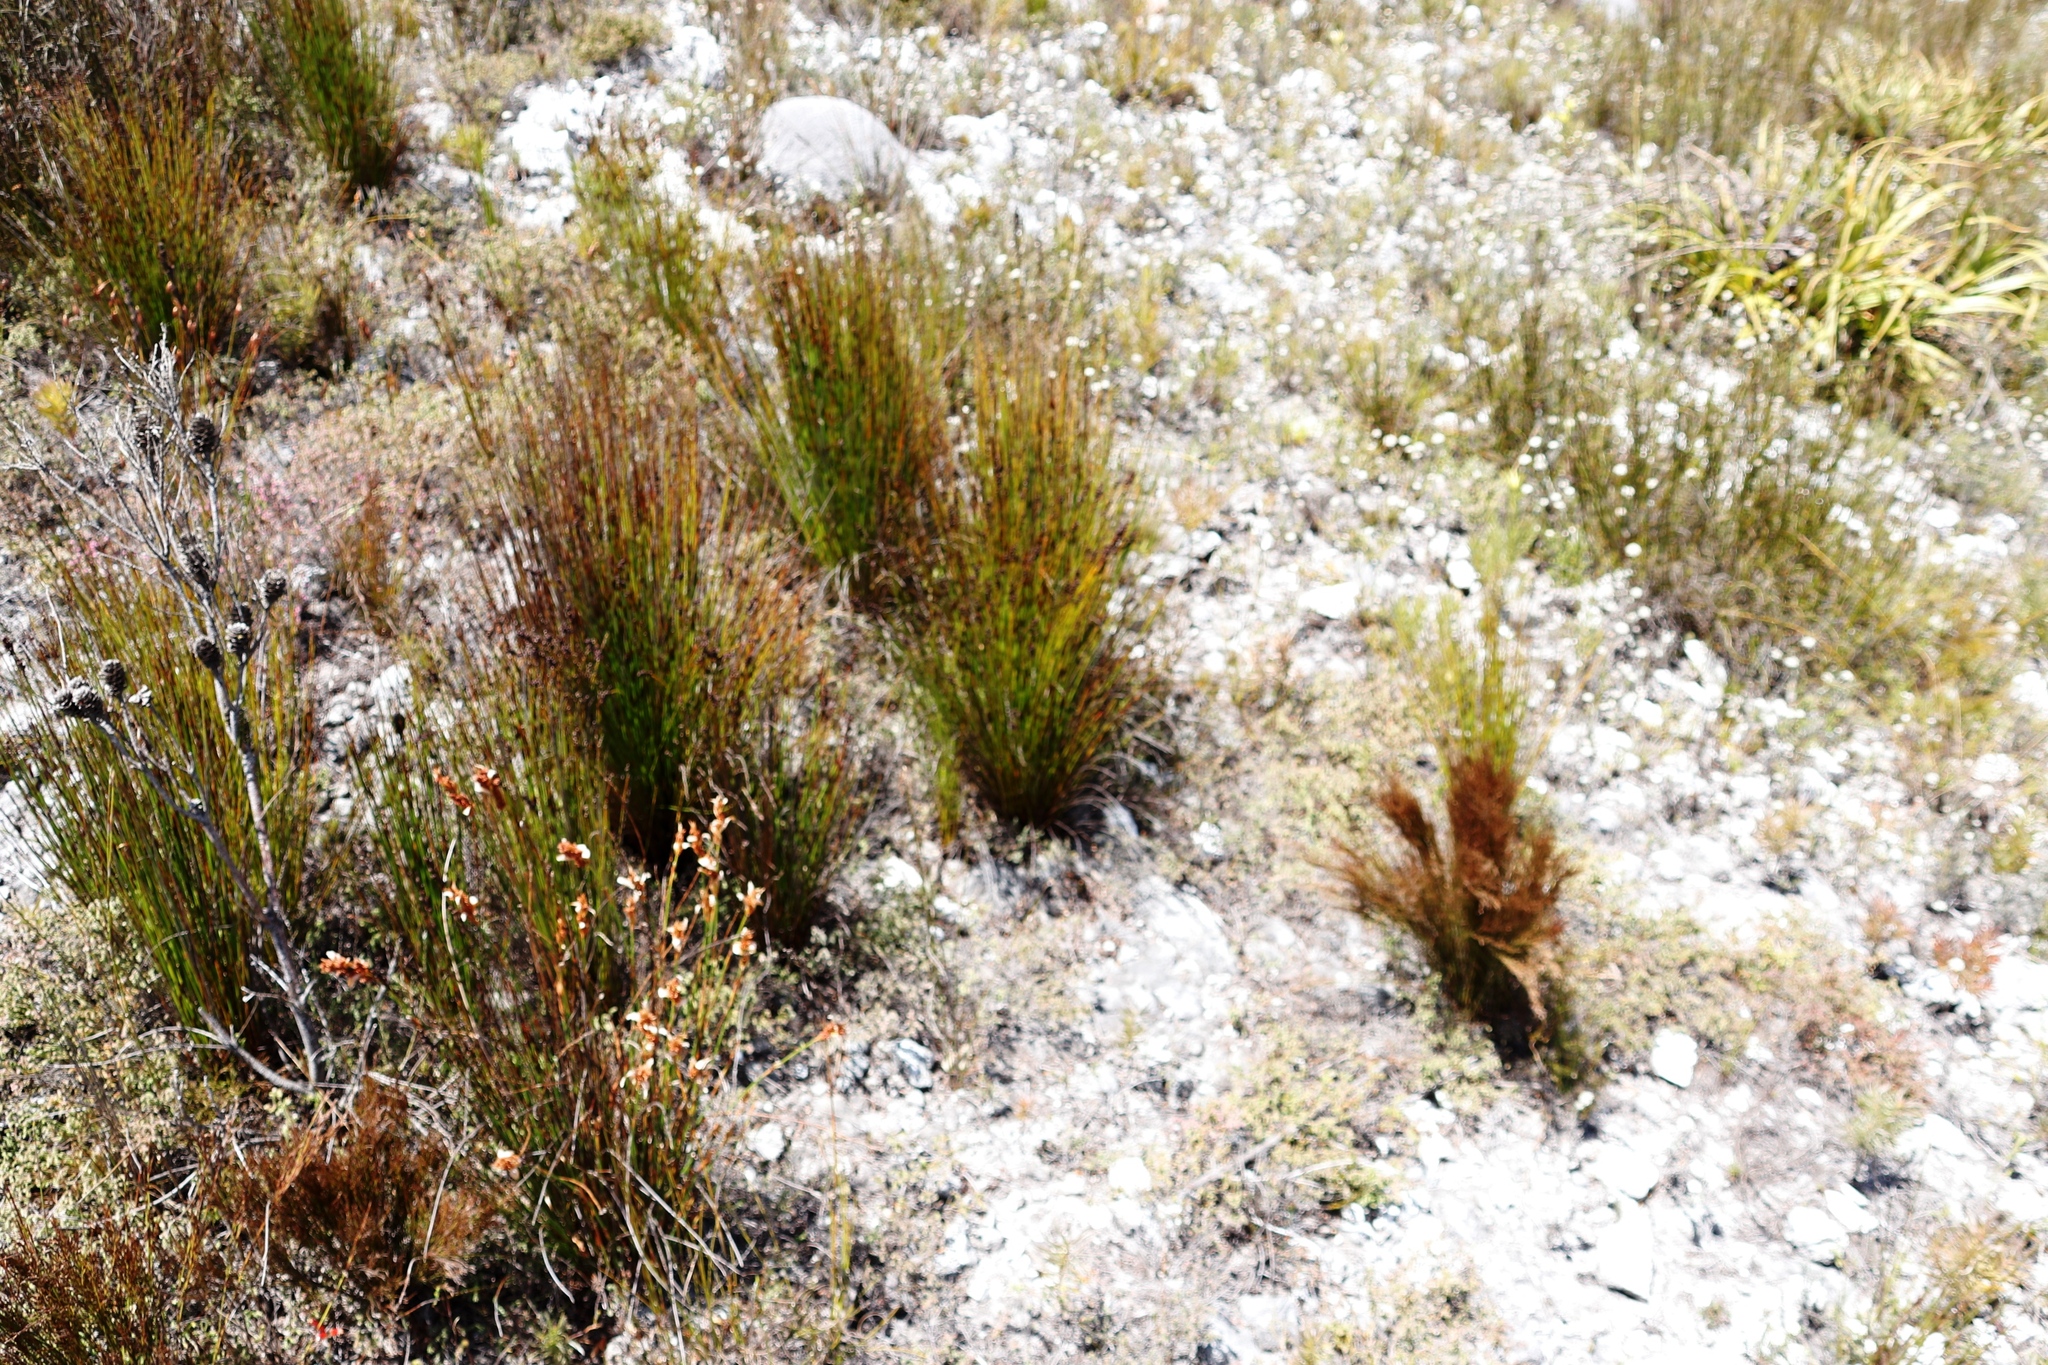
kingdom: Plantae
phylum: Tracheophyta
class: Liliopsida
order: Poales
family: Restionaceae
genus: Elegia
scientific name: Elegia ebracteata
